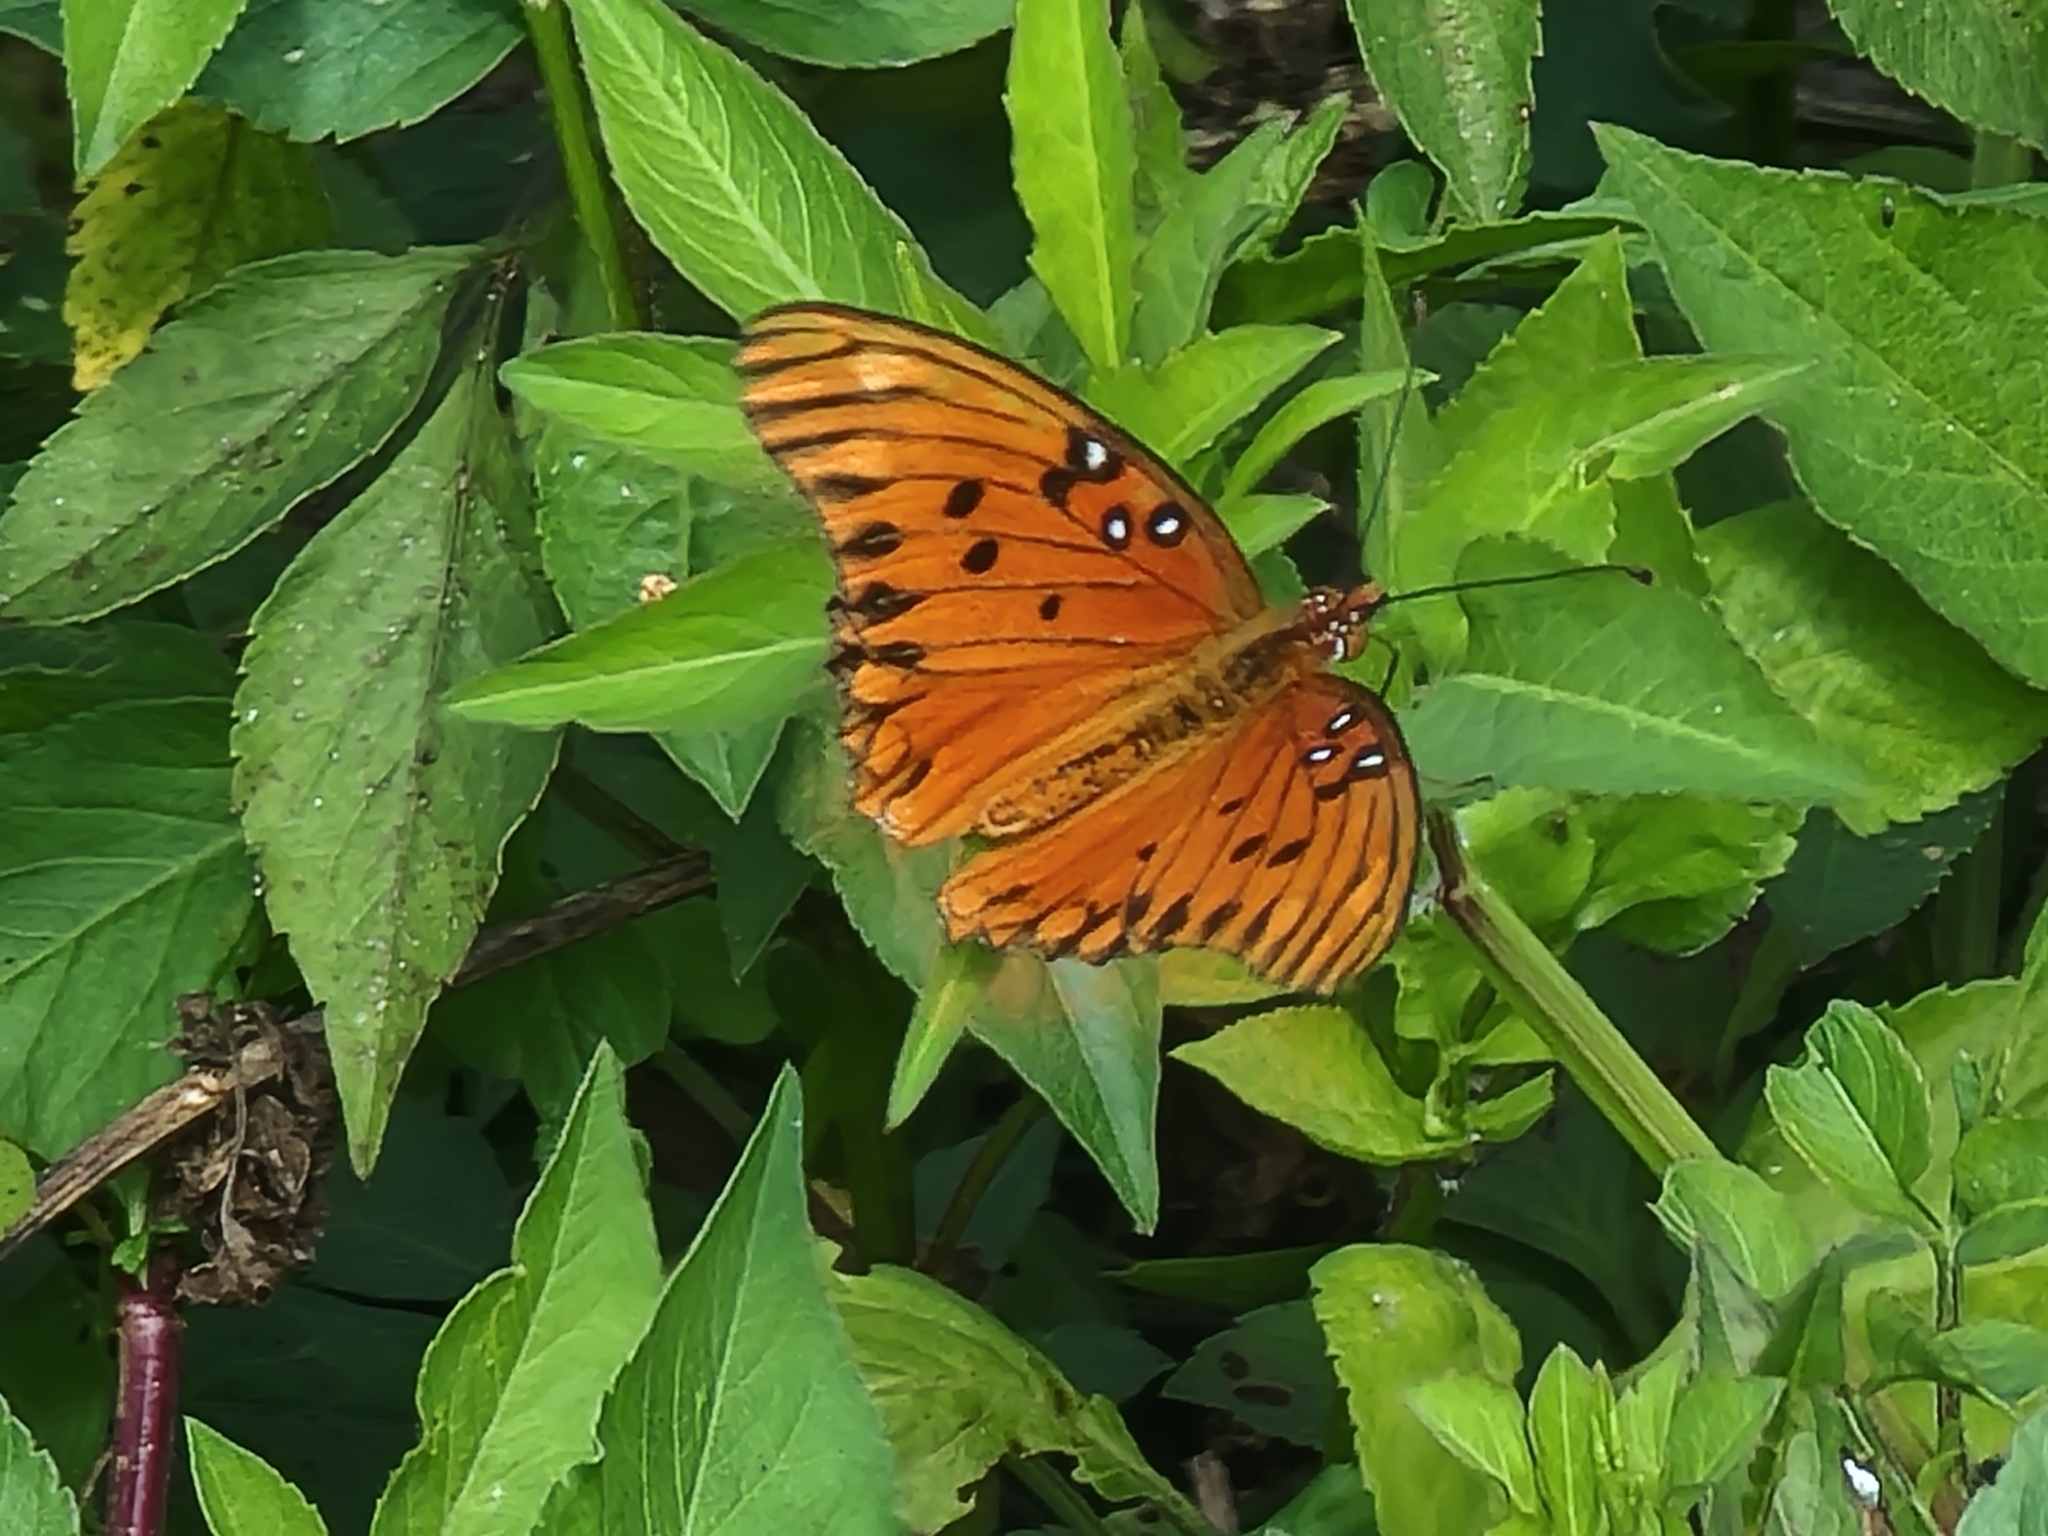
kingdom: Animalia
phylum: Arthropoda
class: Insecta
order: Lepidoptera
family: Nymphalidae
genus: Dione
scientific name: Dione vanillae
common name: Gulf fritillary
